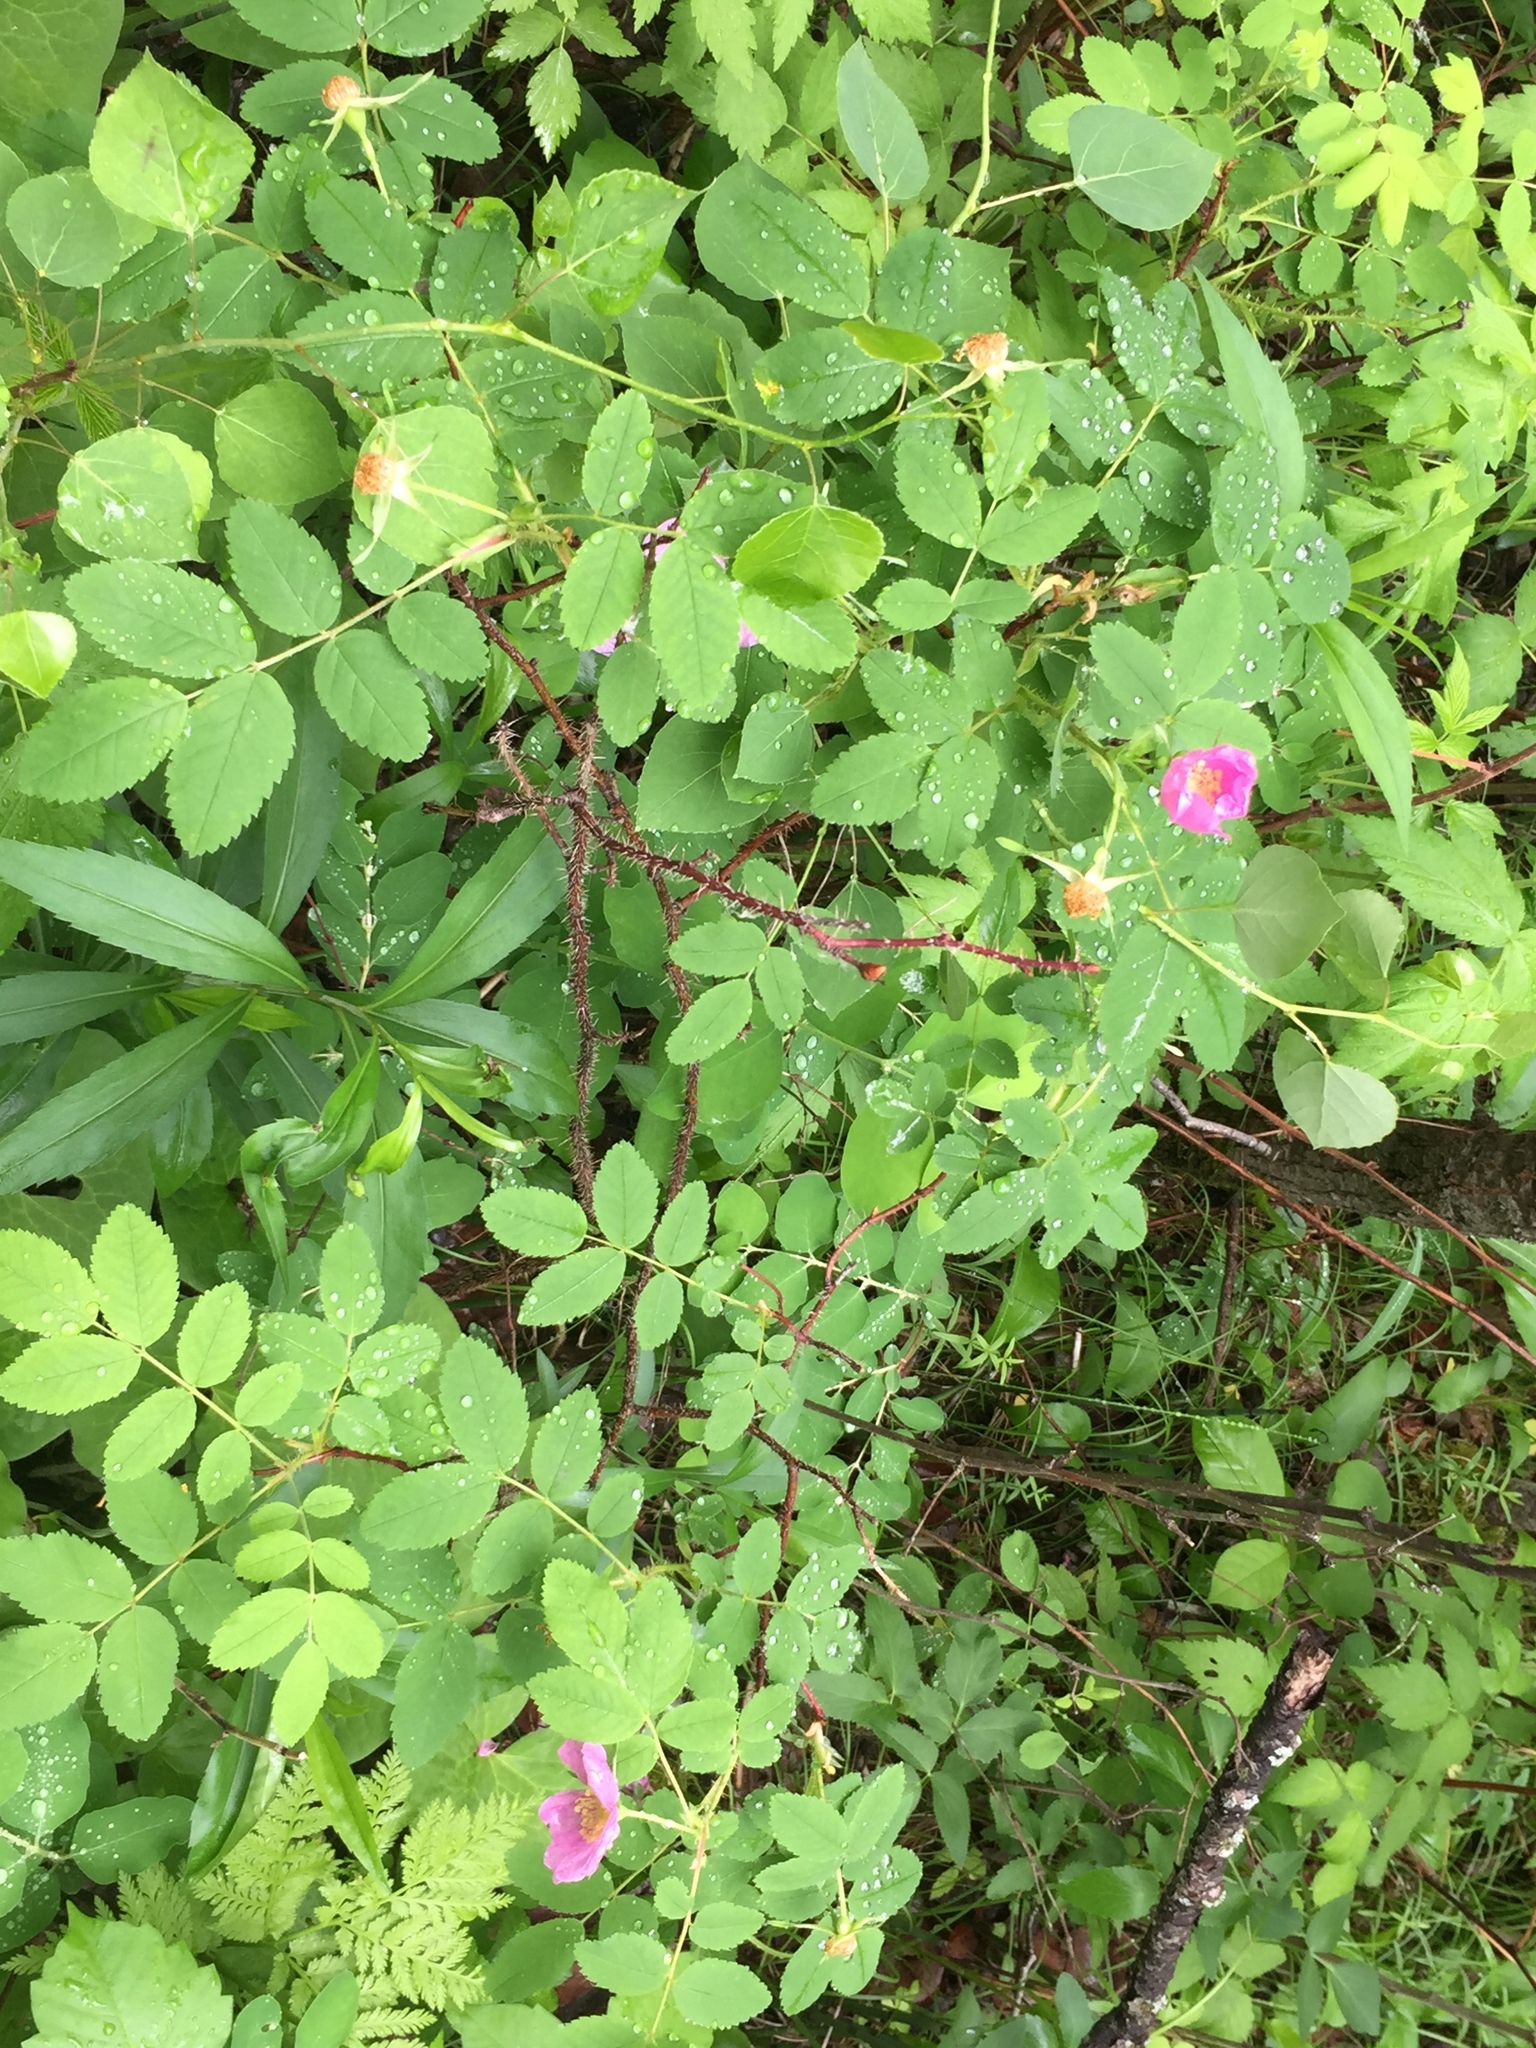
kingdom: Plantae
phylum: Tracheophyta
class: Magnoliopsida
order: Rosales
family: Rosaceae
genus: Rosa
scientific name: Rosa woodsii
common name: Woods's rose
